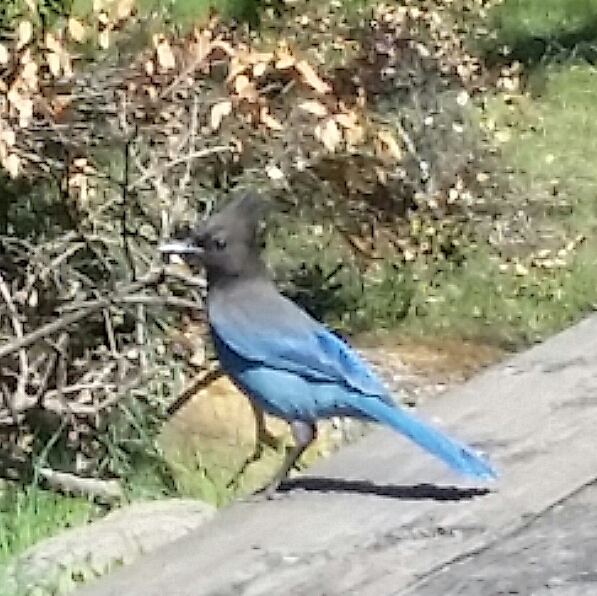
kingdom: Animalia
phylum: Chordata
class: Aves
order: Passeriformes
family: Corvidae
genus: Cyanocitta
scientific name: Cyanocitta stelleri
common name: Steller's jay
